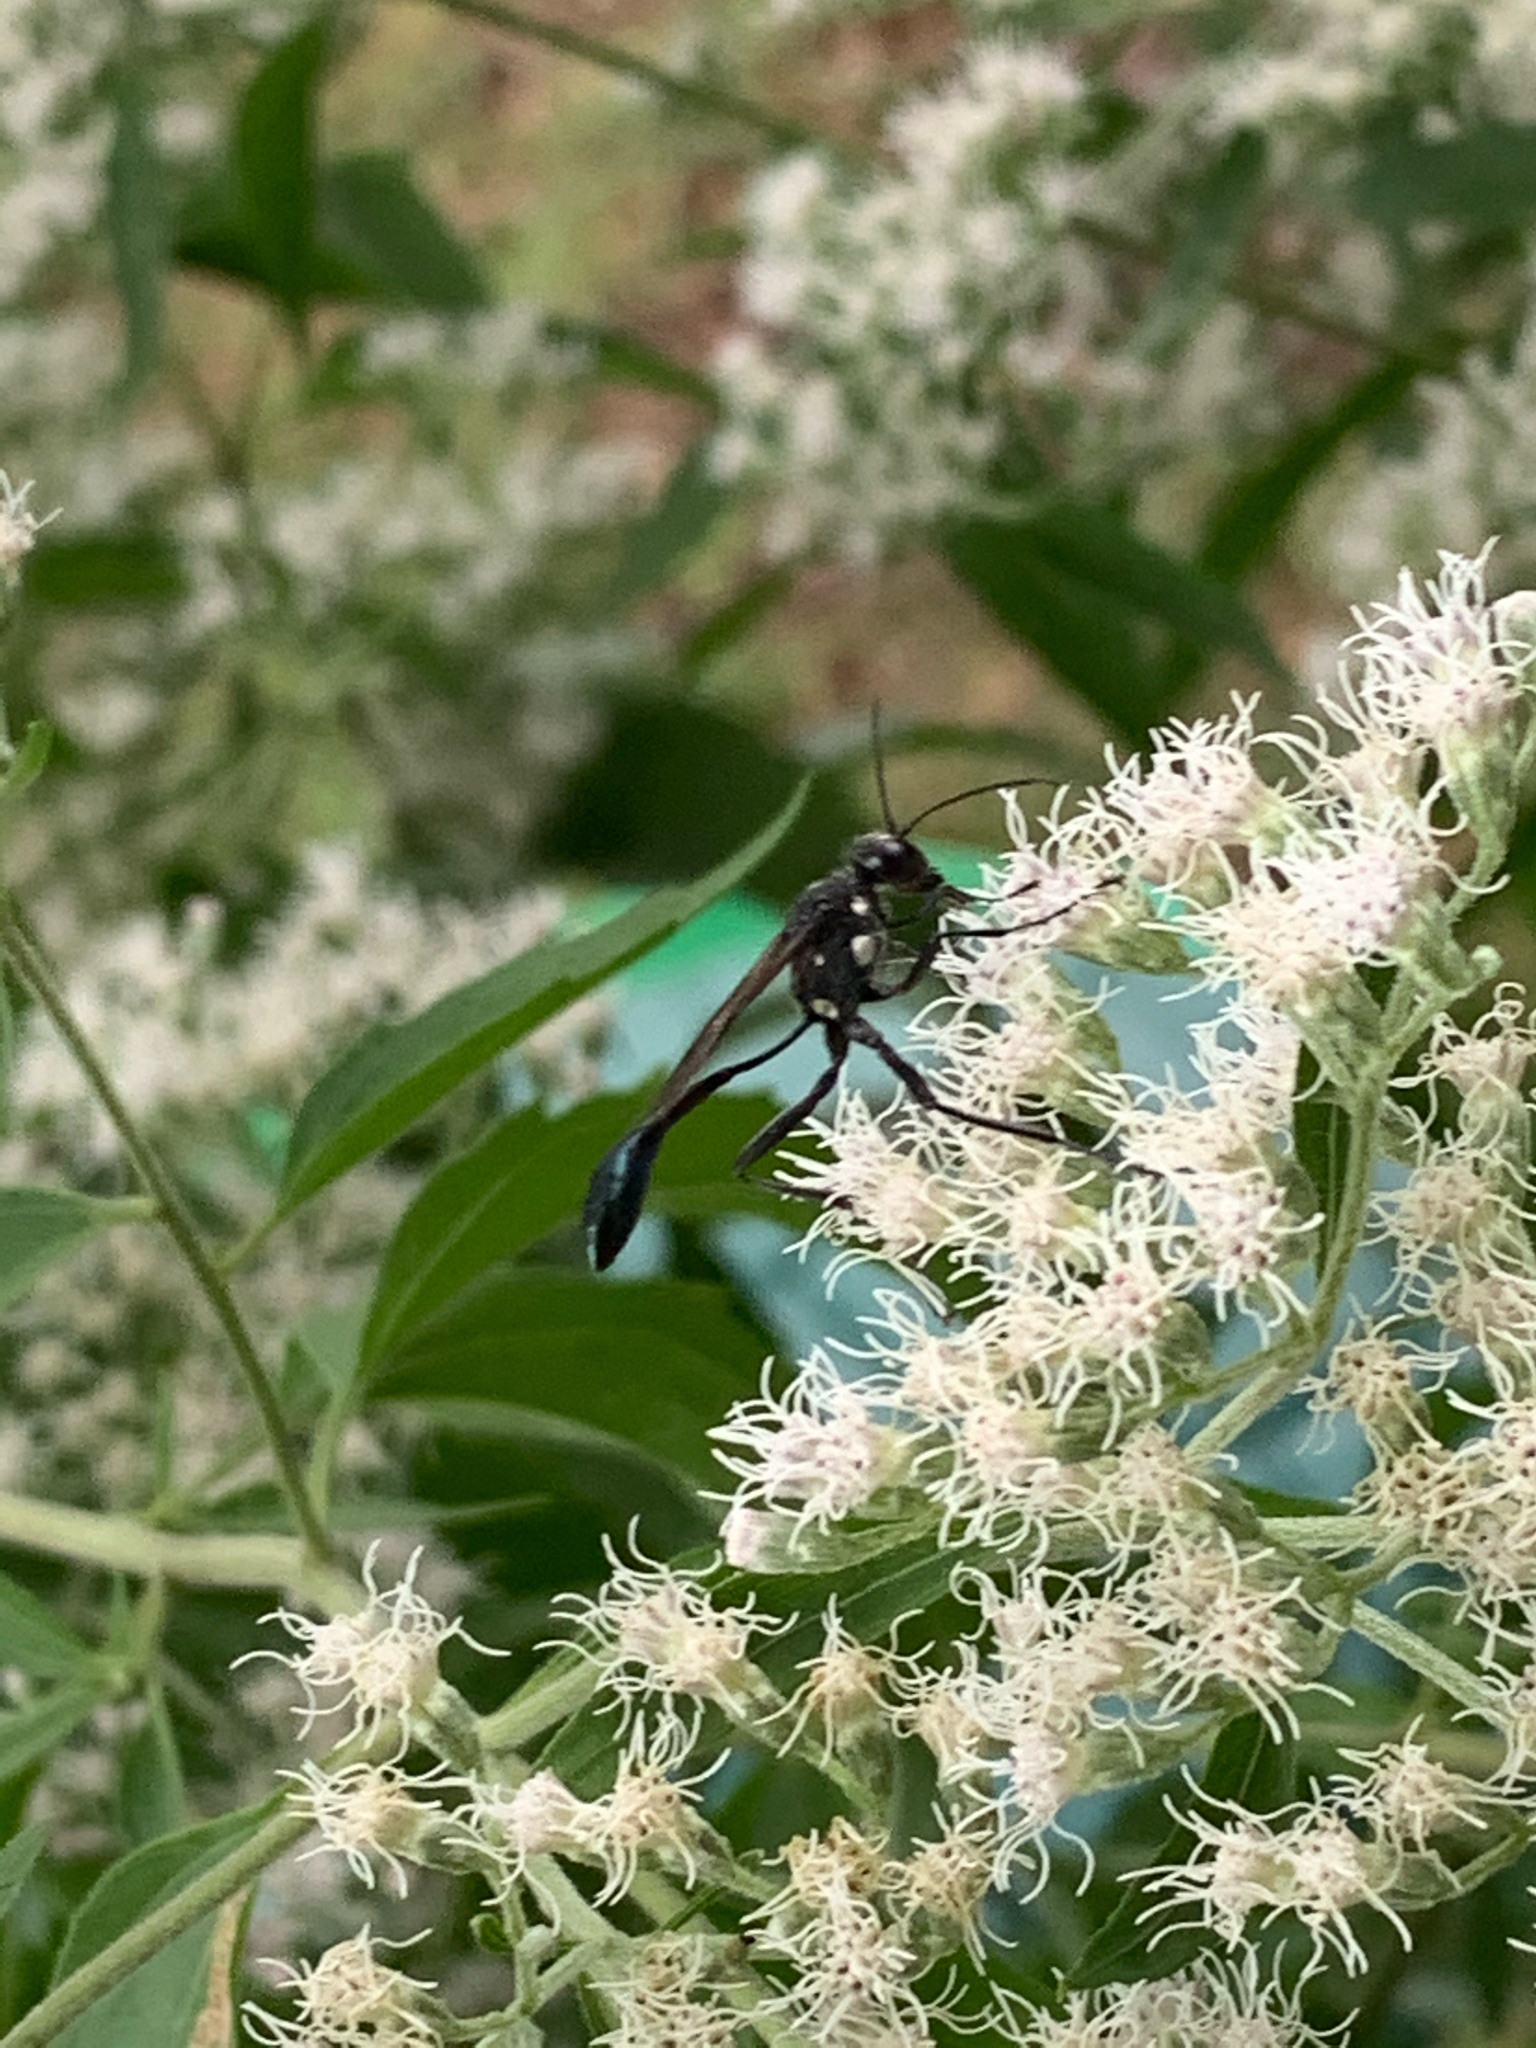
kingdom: Animalia
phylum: Arthropoda
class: Insecta
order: Hymenoptera
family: Sphecidae
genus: Eremnophila
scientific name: Eremnophila aureonotata
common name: Gold-marked thread-waisted wasp
